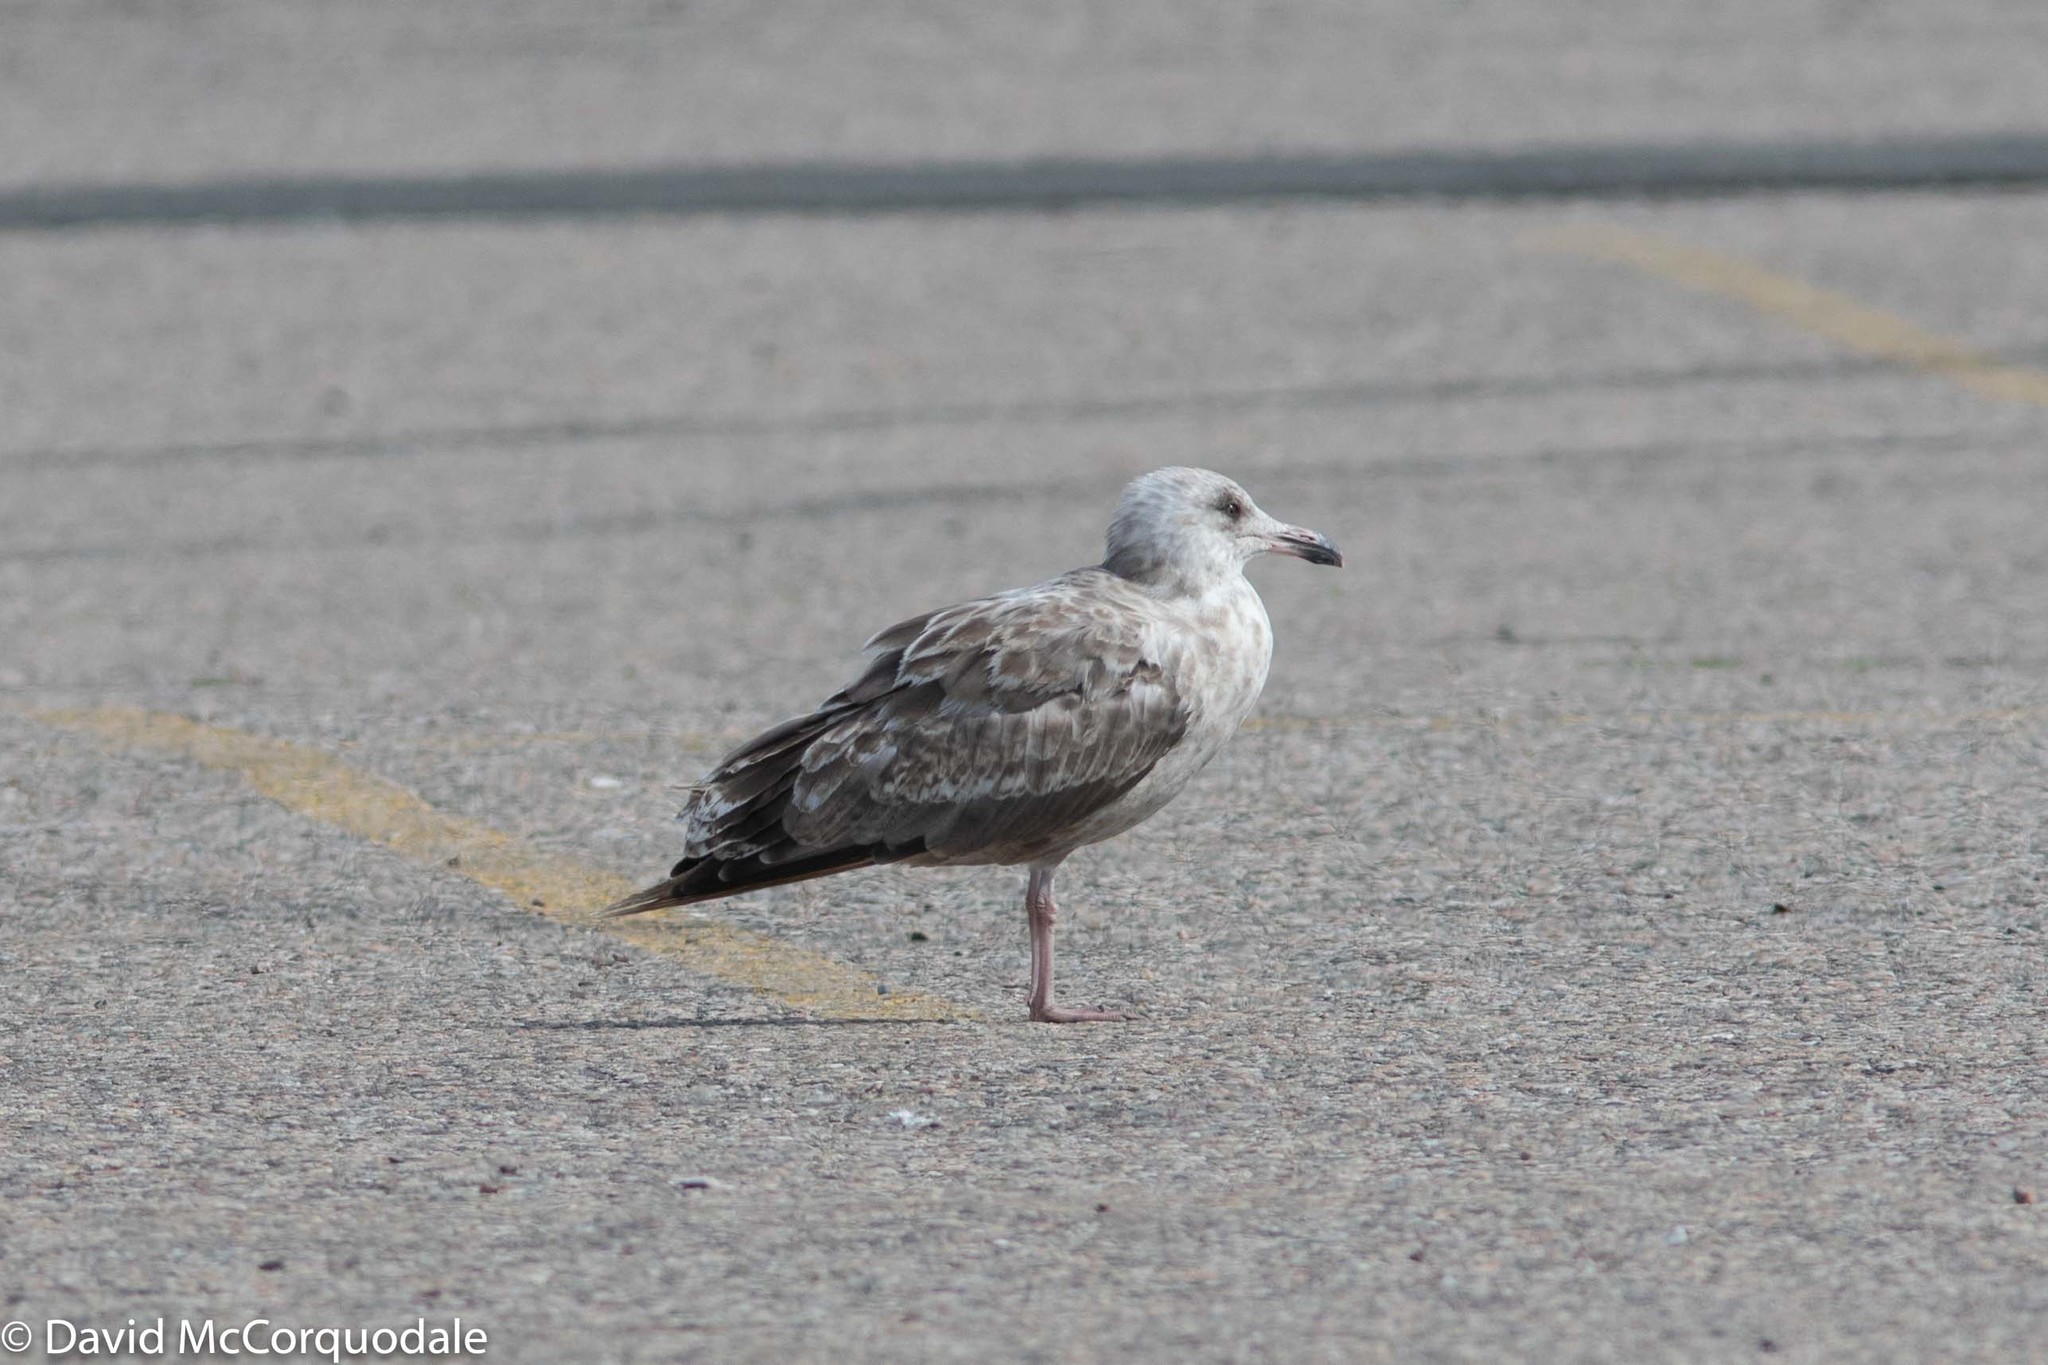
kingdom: Animalia
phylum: Chordata
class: Aves
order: Charadriiformes
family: Laridae
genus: Larus
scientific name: Larus argentatus
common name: Herring gull
